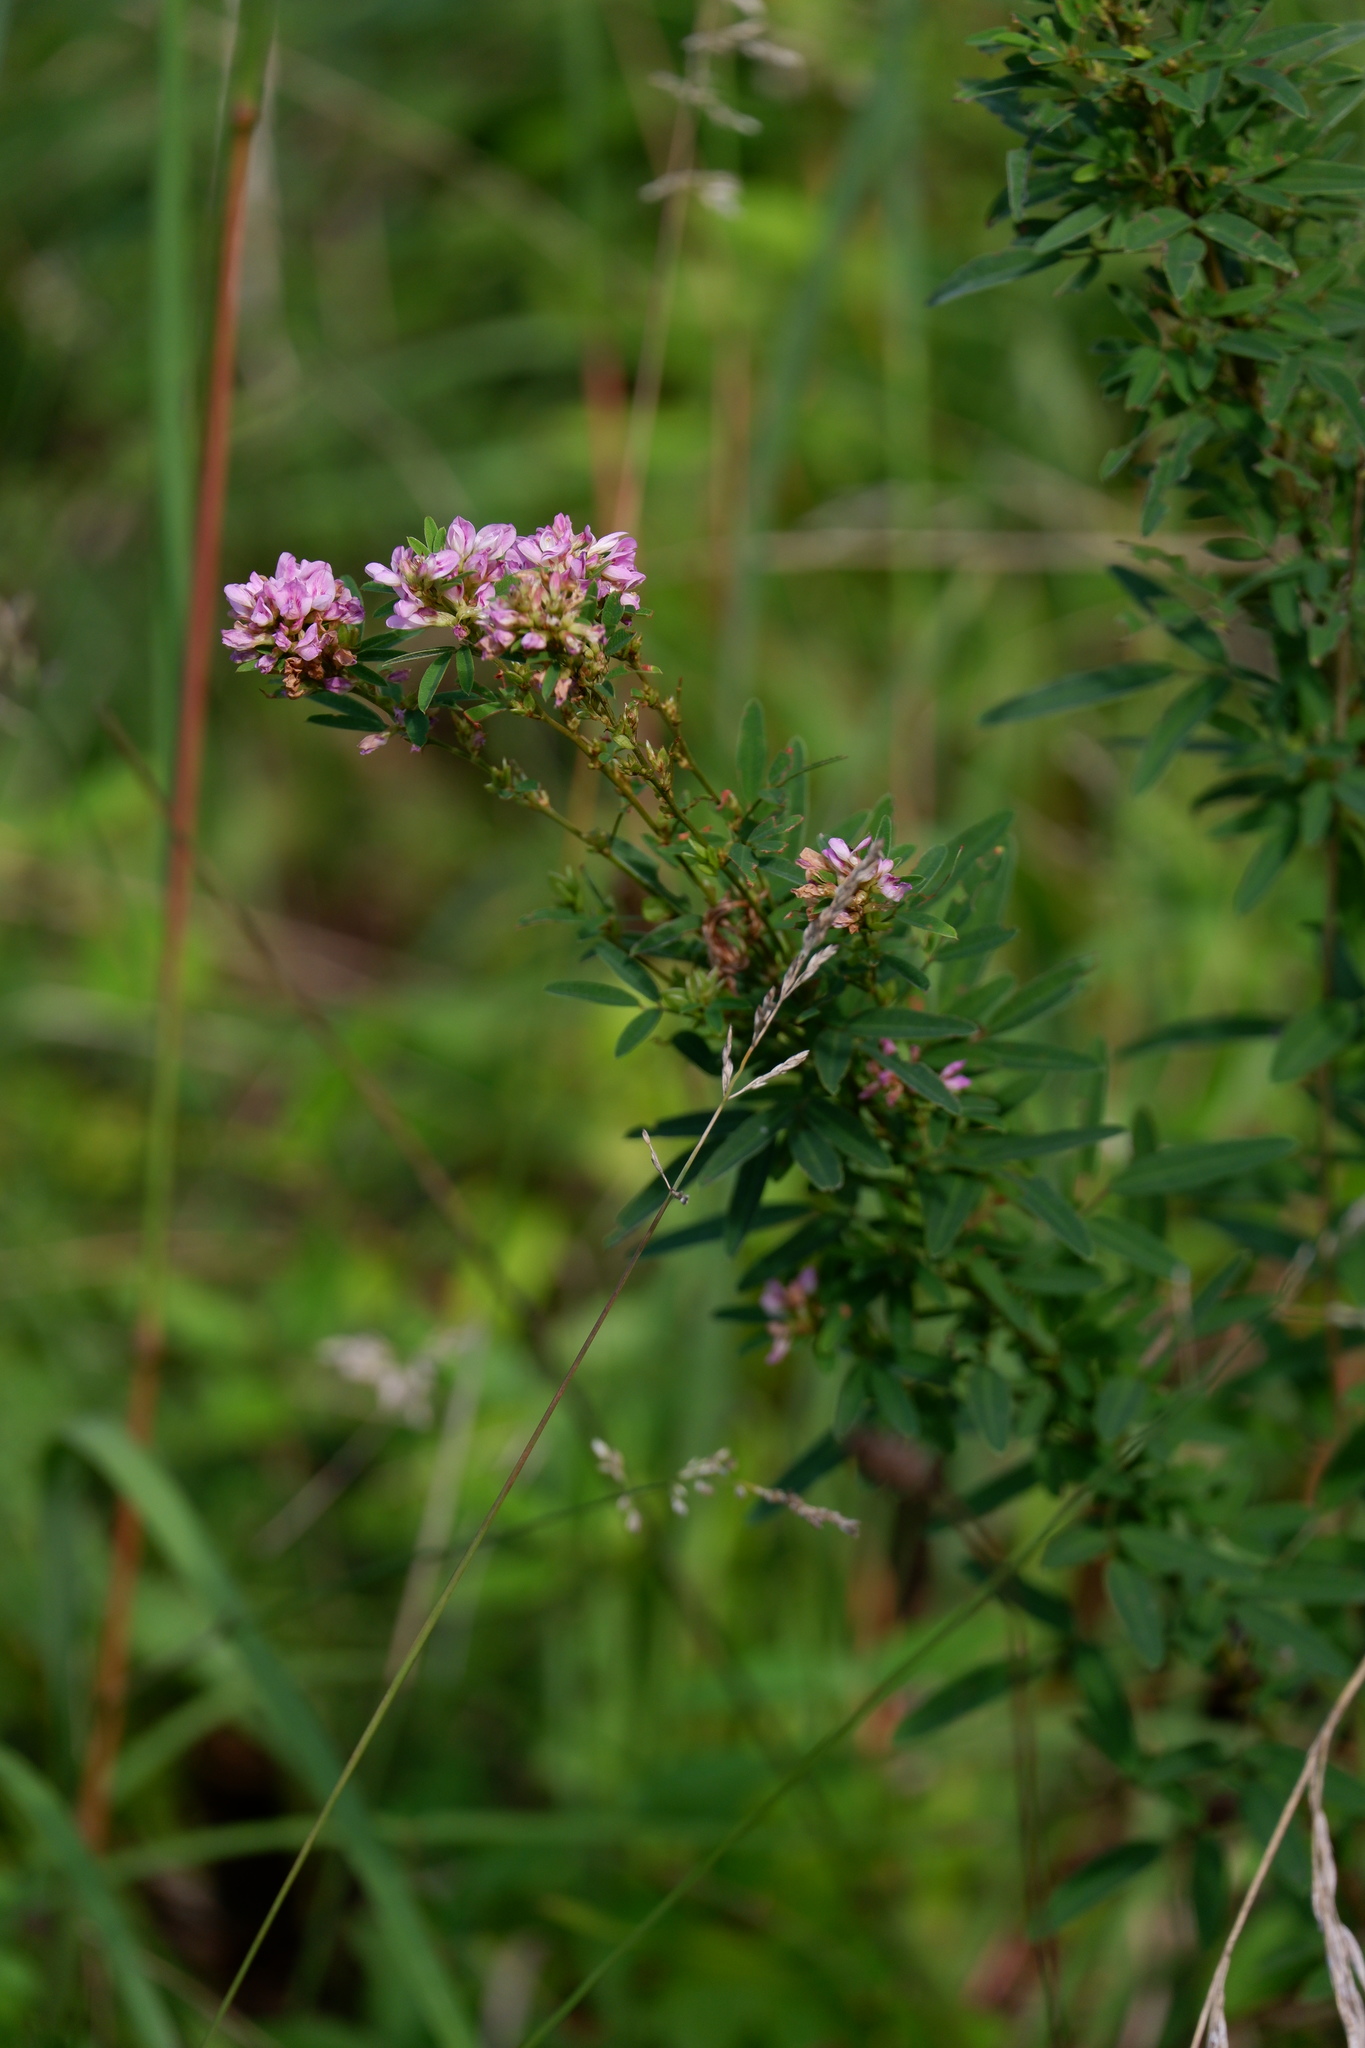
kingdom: Plantae
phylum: Tracheophyta
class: Magnoliopsida
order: Fabales
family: Fabaceae
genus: Lespedeza
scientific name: Lespedeza virginica
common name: Slender bush-clover
